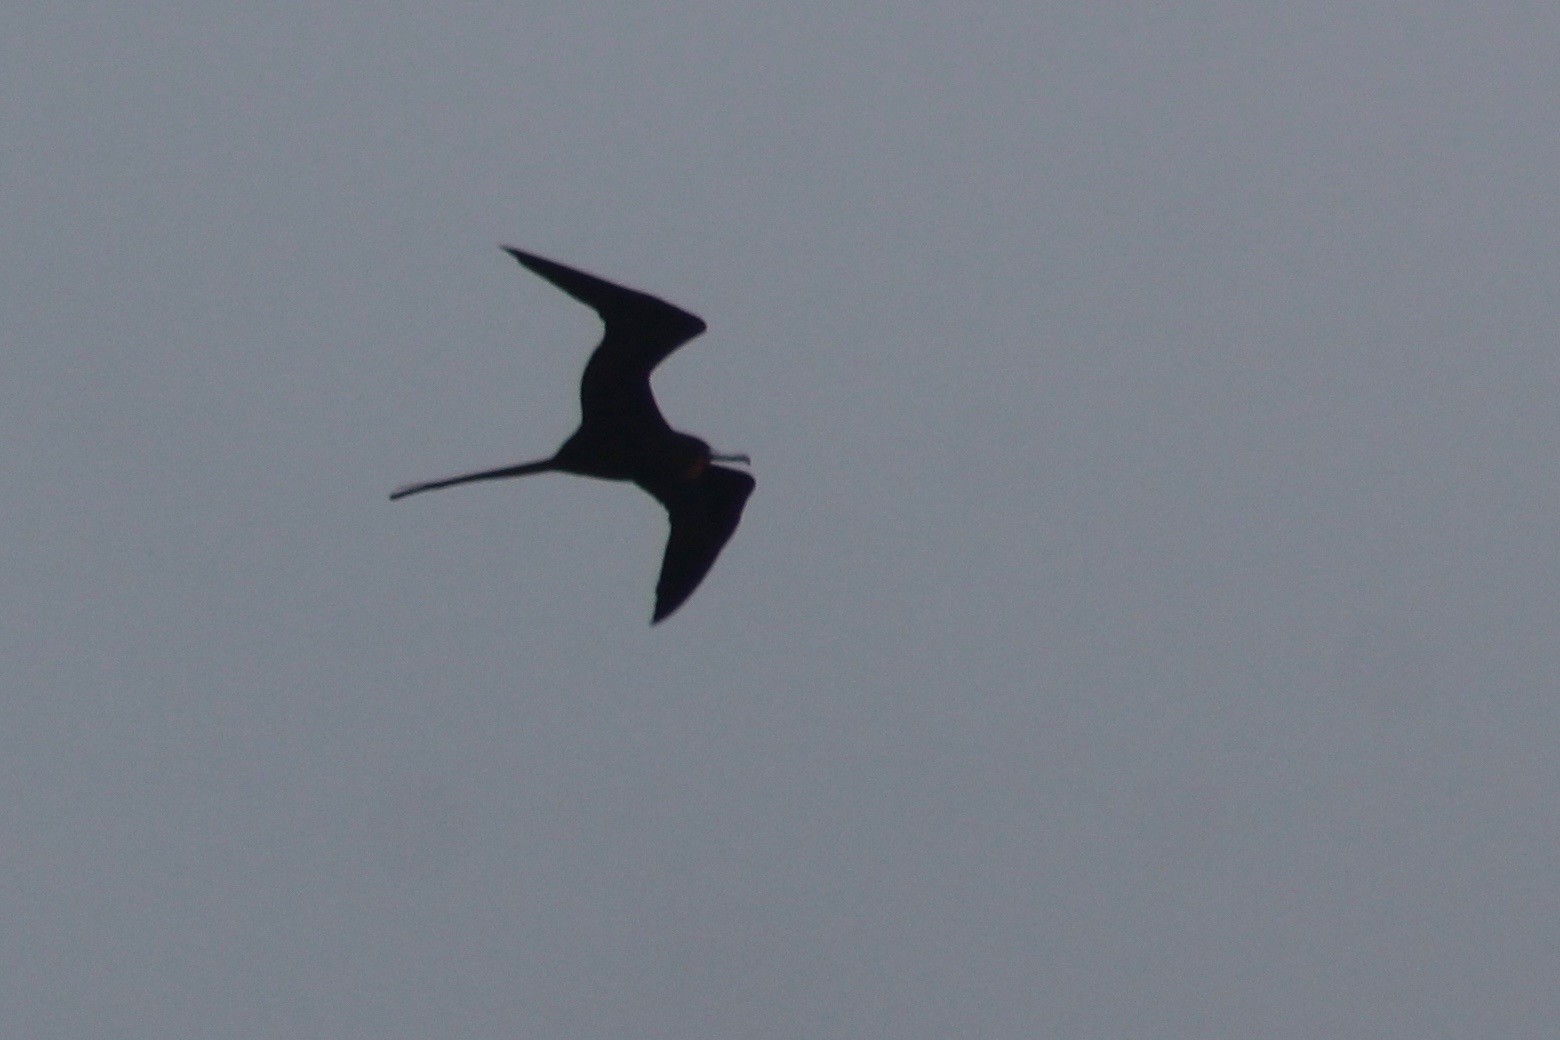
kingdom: Animalia
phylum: Chordata
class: Aves
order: Suliformes
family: Fregatidae
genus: Fregata
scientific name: Fregata magnificens
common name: Magnificent frigatebird
